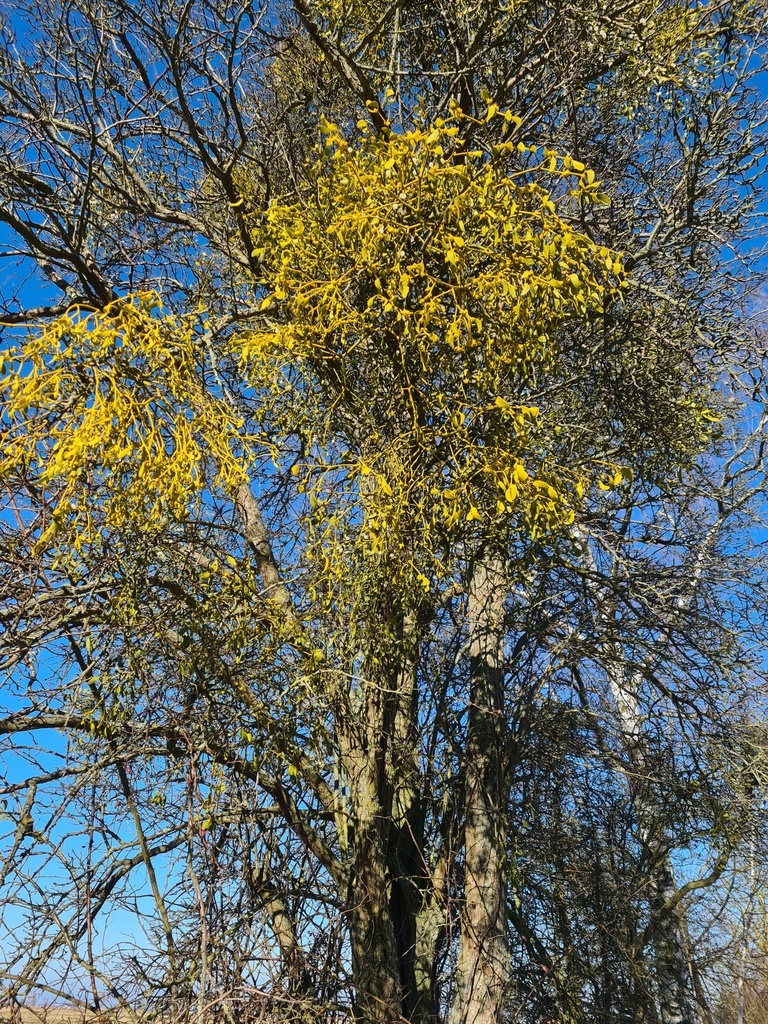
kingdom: Plantae
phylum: Tracheophyta
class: Magnoliopsida
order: Santalales
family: Viscaceae
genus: Viscum
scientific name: Viscum album
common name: Mistletoe
